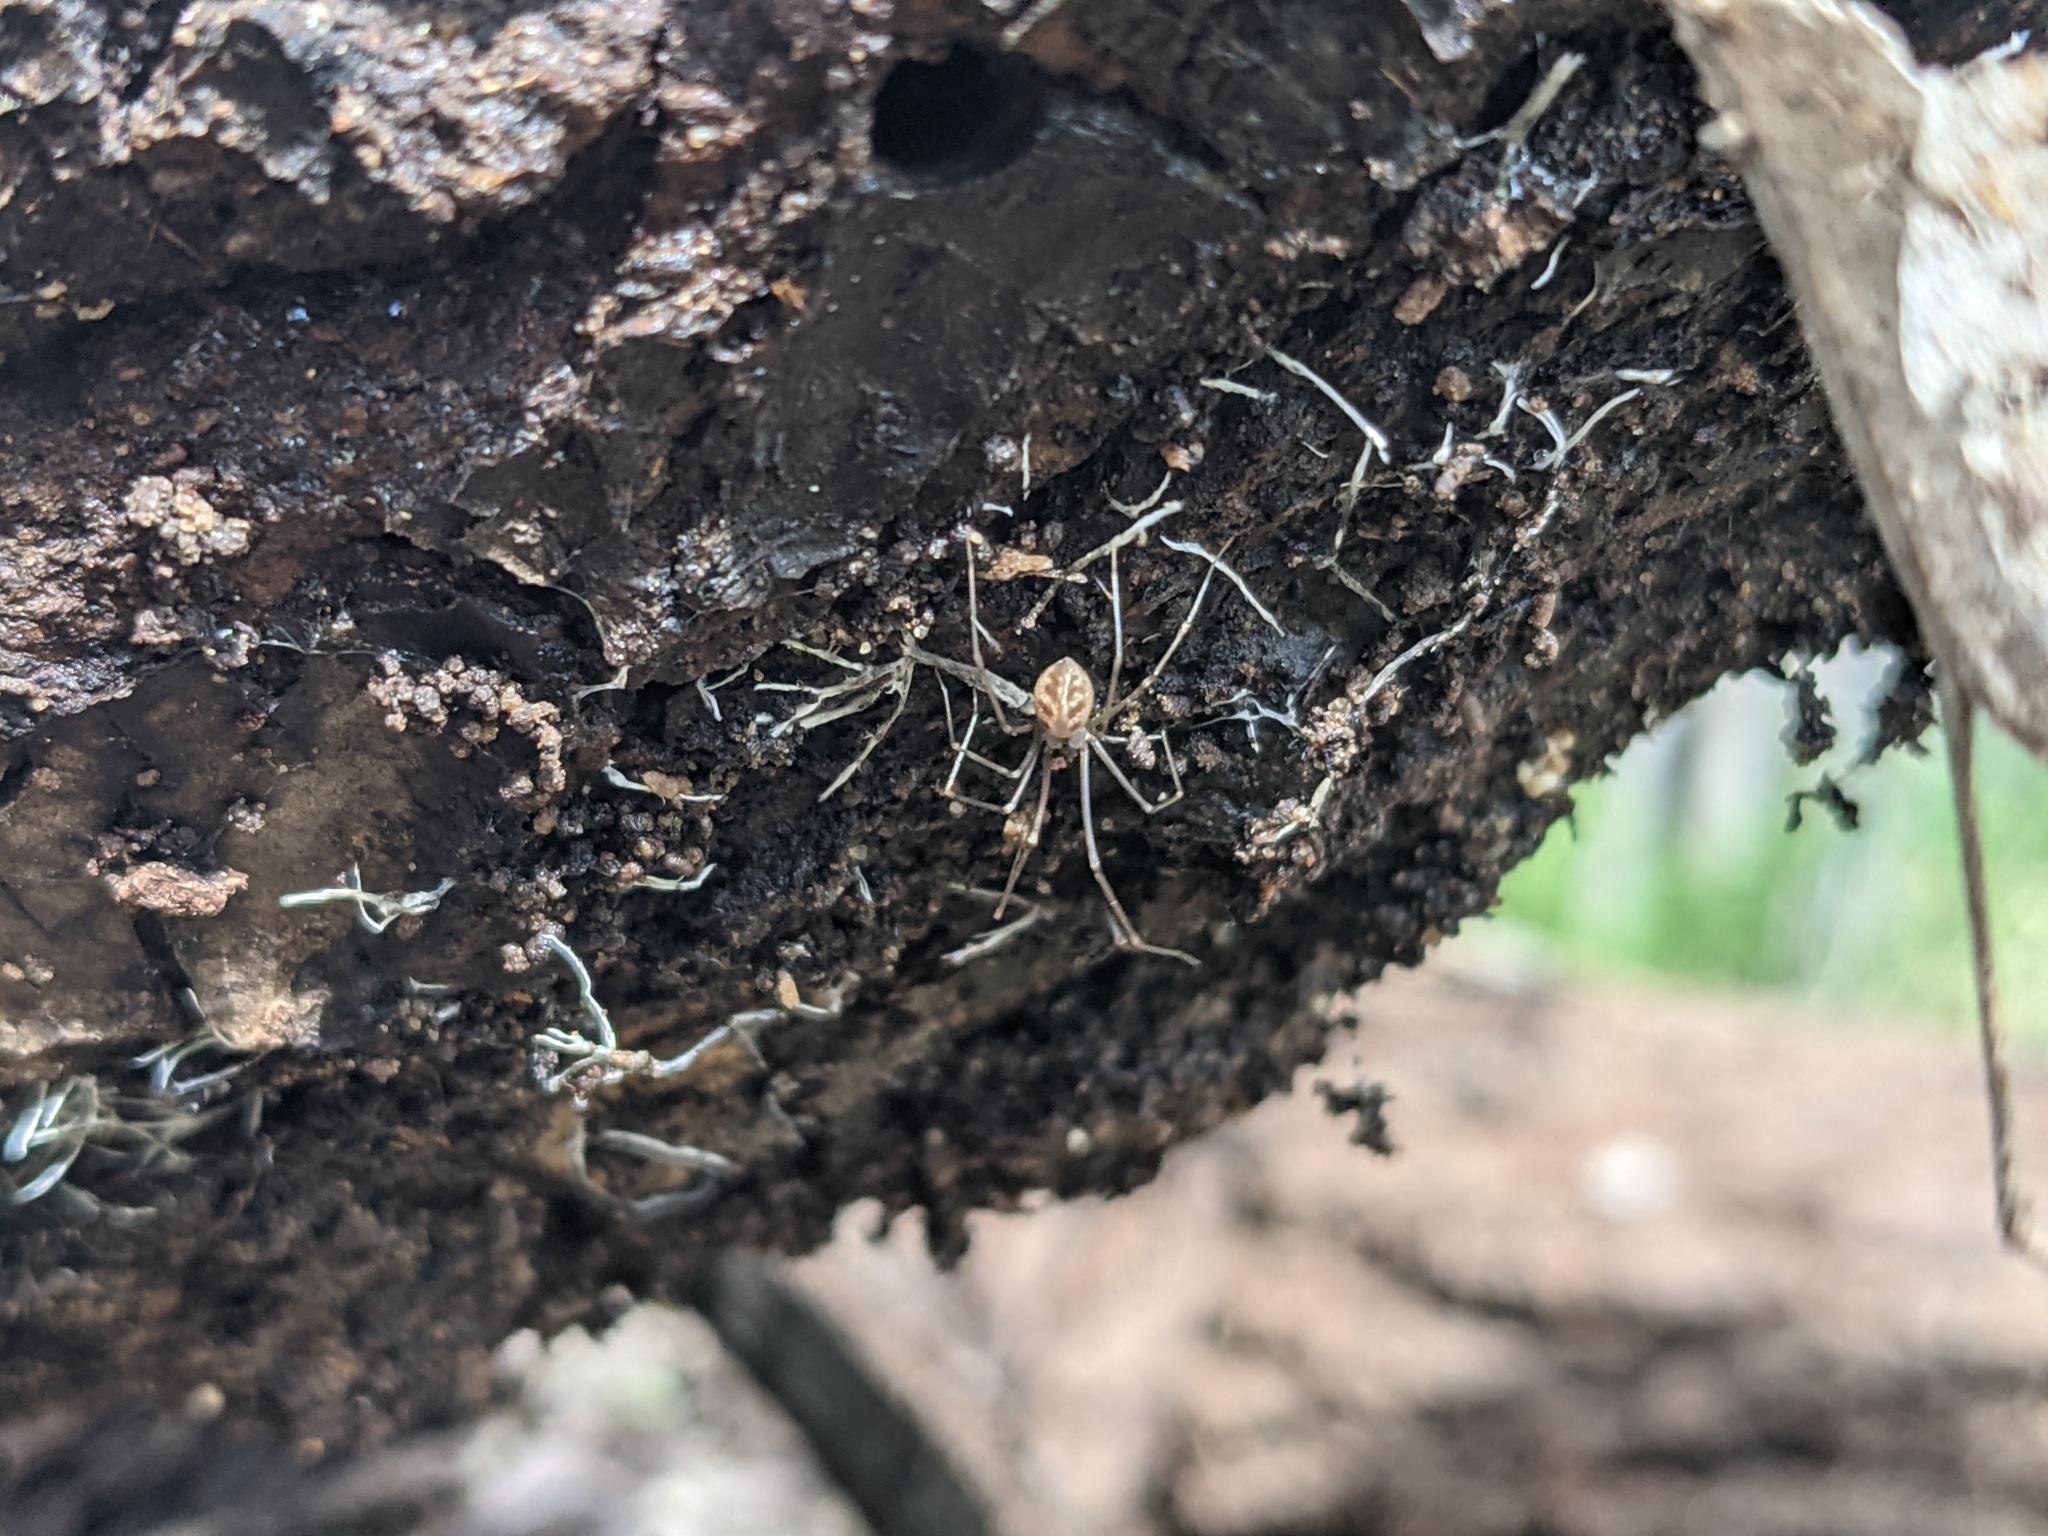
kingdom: Animalia
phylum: Arthropoda
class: Arachnida
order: Araneae
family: Pholcidae
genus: Hoplopholcus
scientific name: Hoplopholcus forskali
